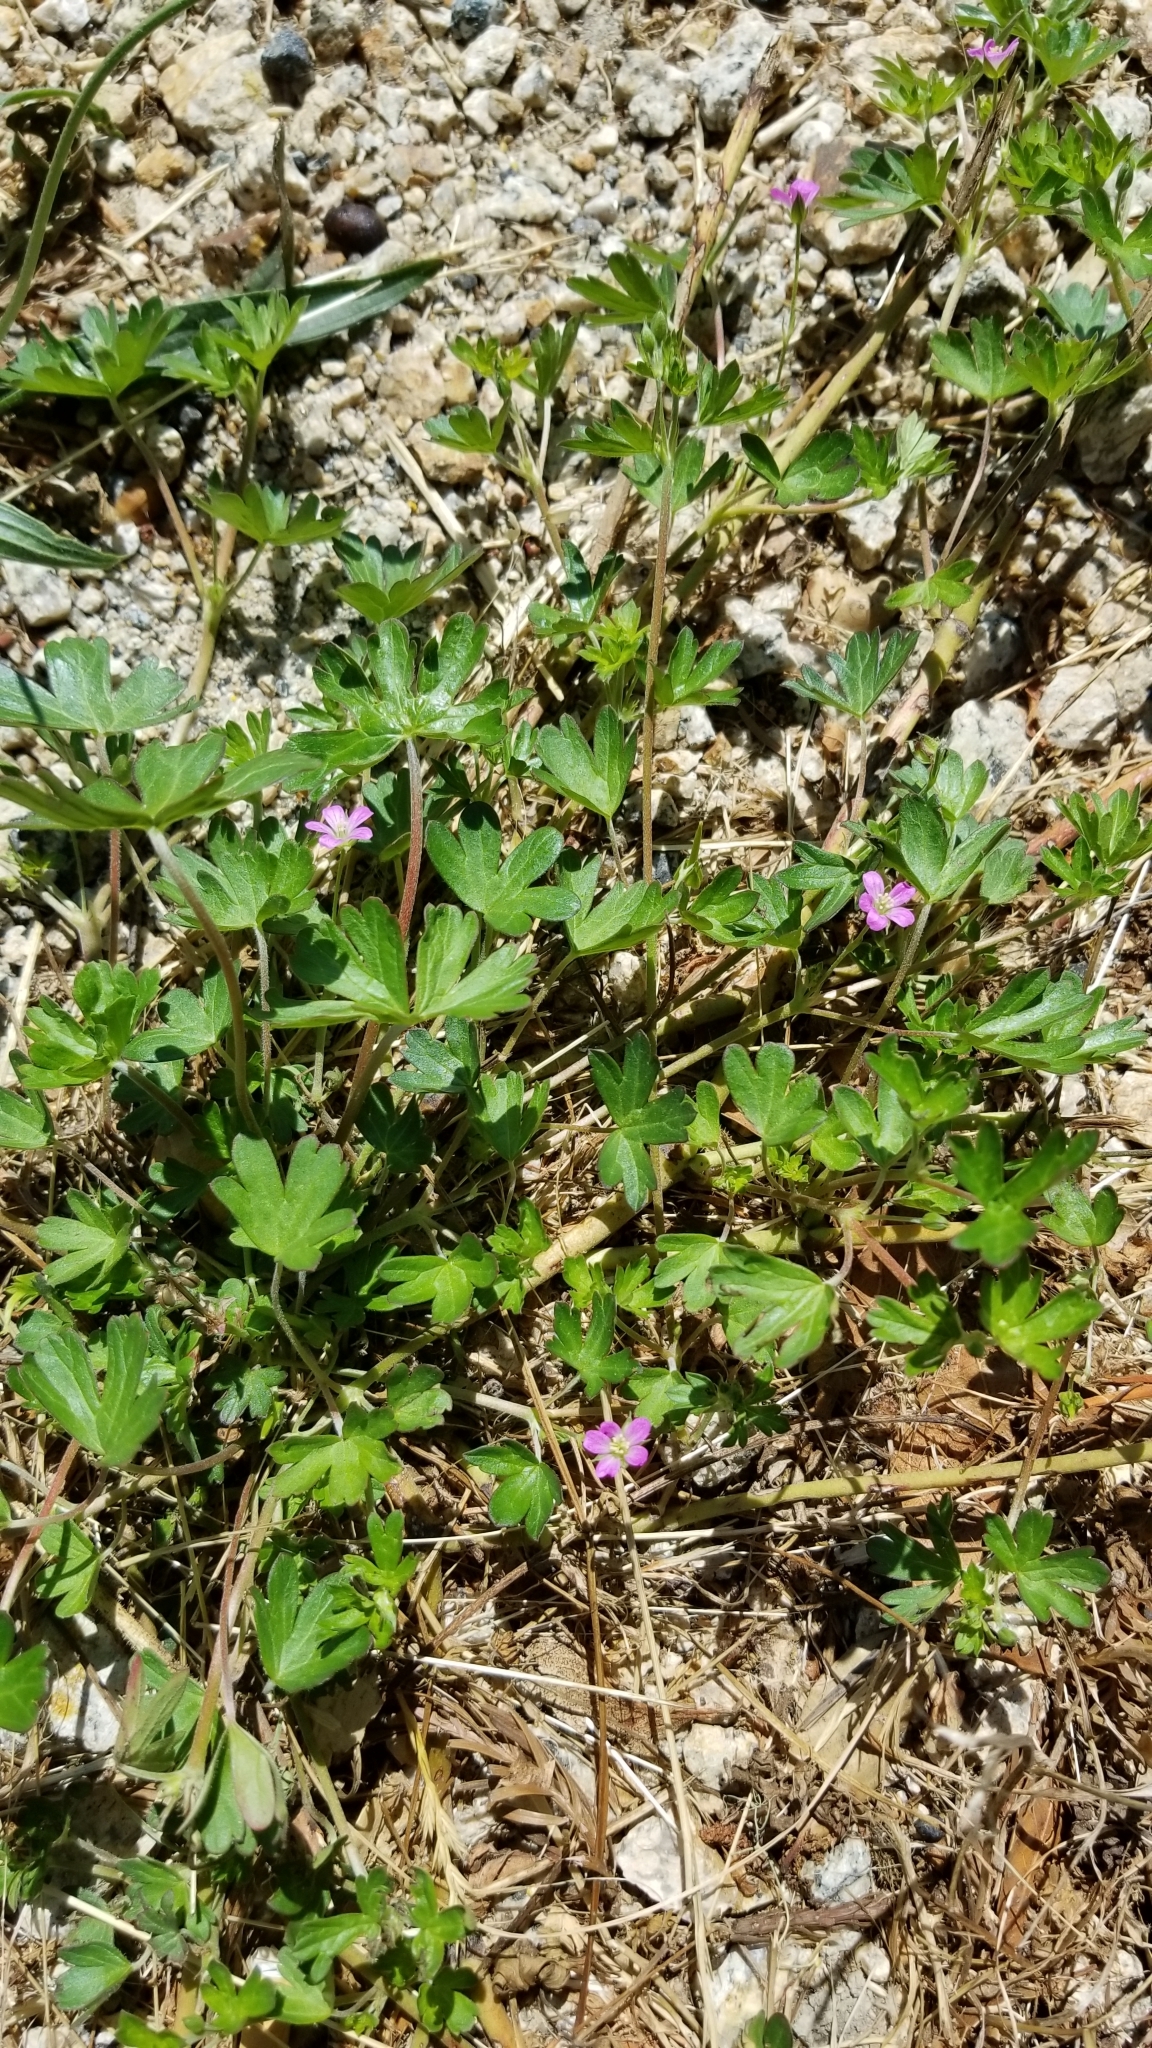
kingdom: Plantae
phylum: Tracheophyta
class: Magnoliopsida
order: Geraniales
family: Geraniaceae
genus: Geranium
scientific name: Geranium rotundifolium
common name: Round-leaved crane's-bill
